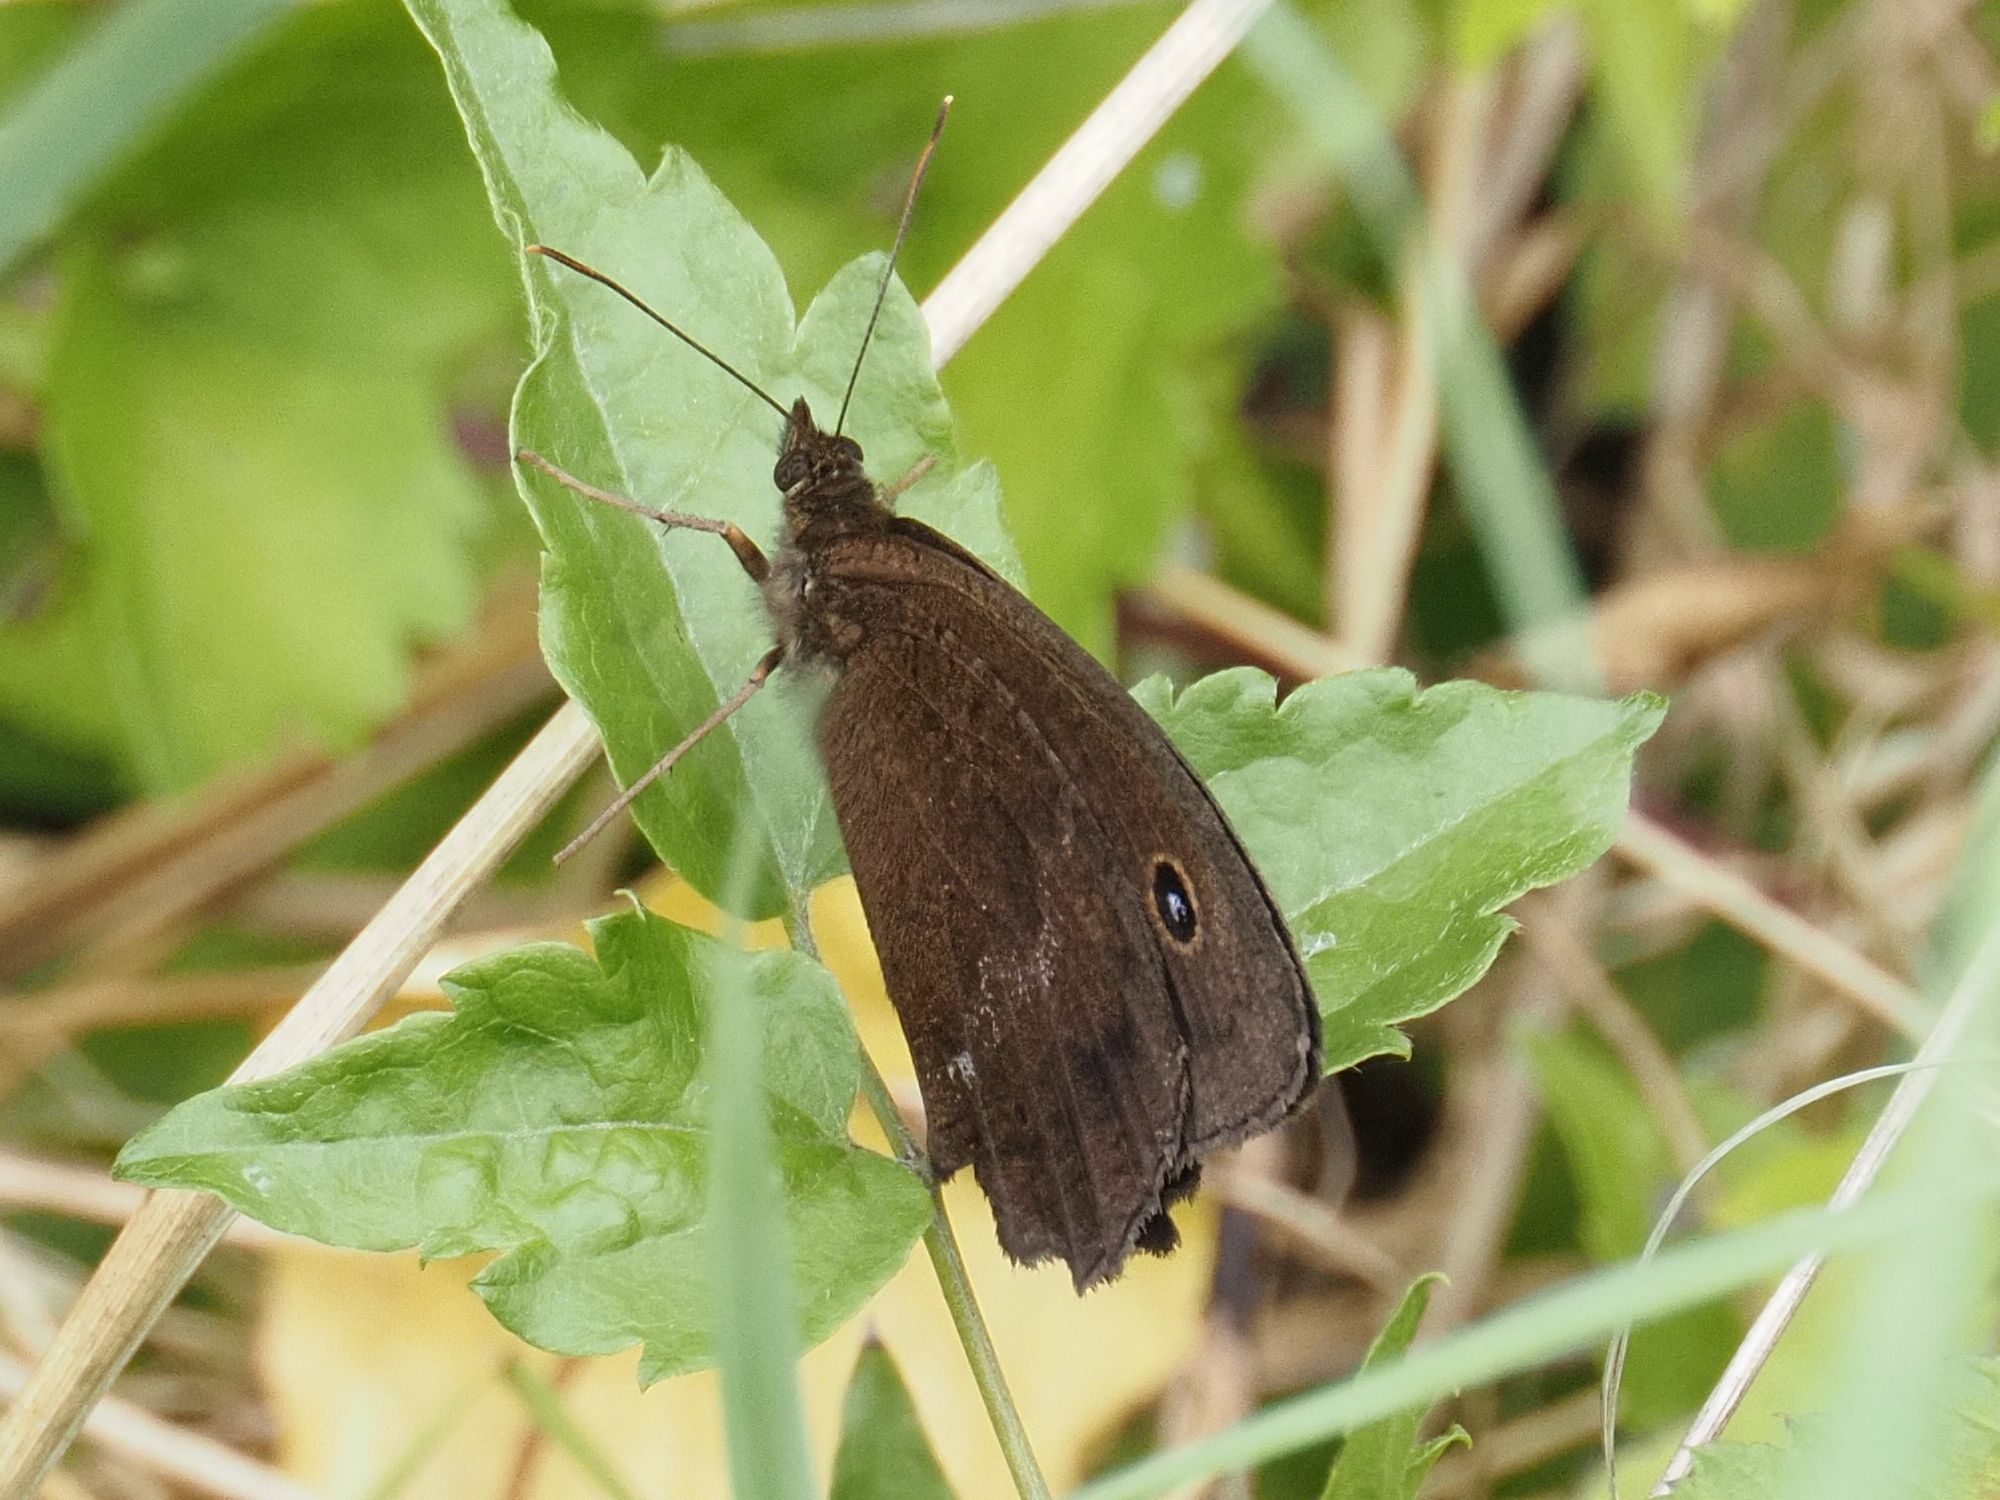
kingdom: Animalia
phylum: Arthropoda
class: Insecta
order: Lepidoptera
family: Nymphalidae
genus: Minois
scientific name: Minois dryas
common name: Dryad
